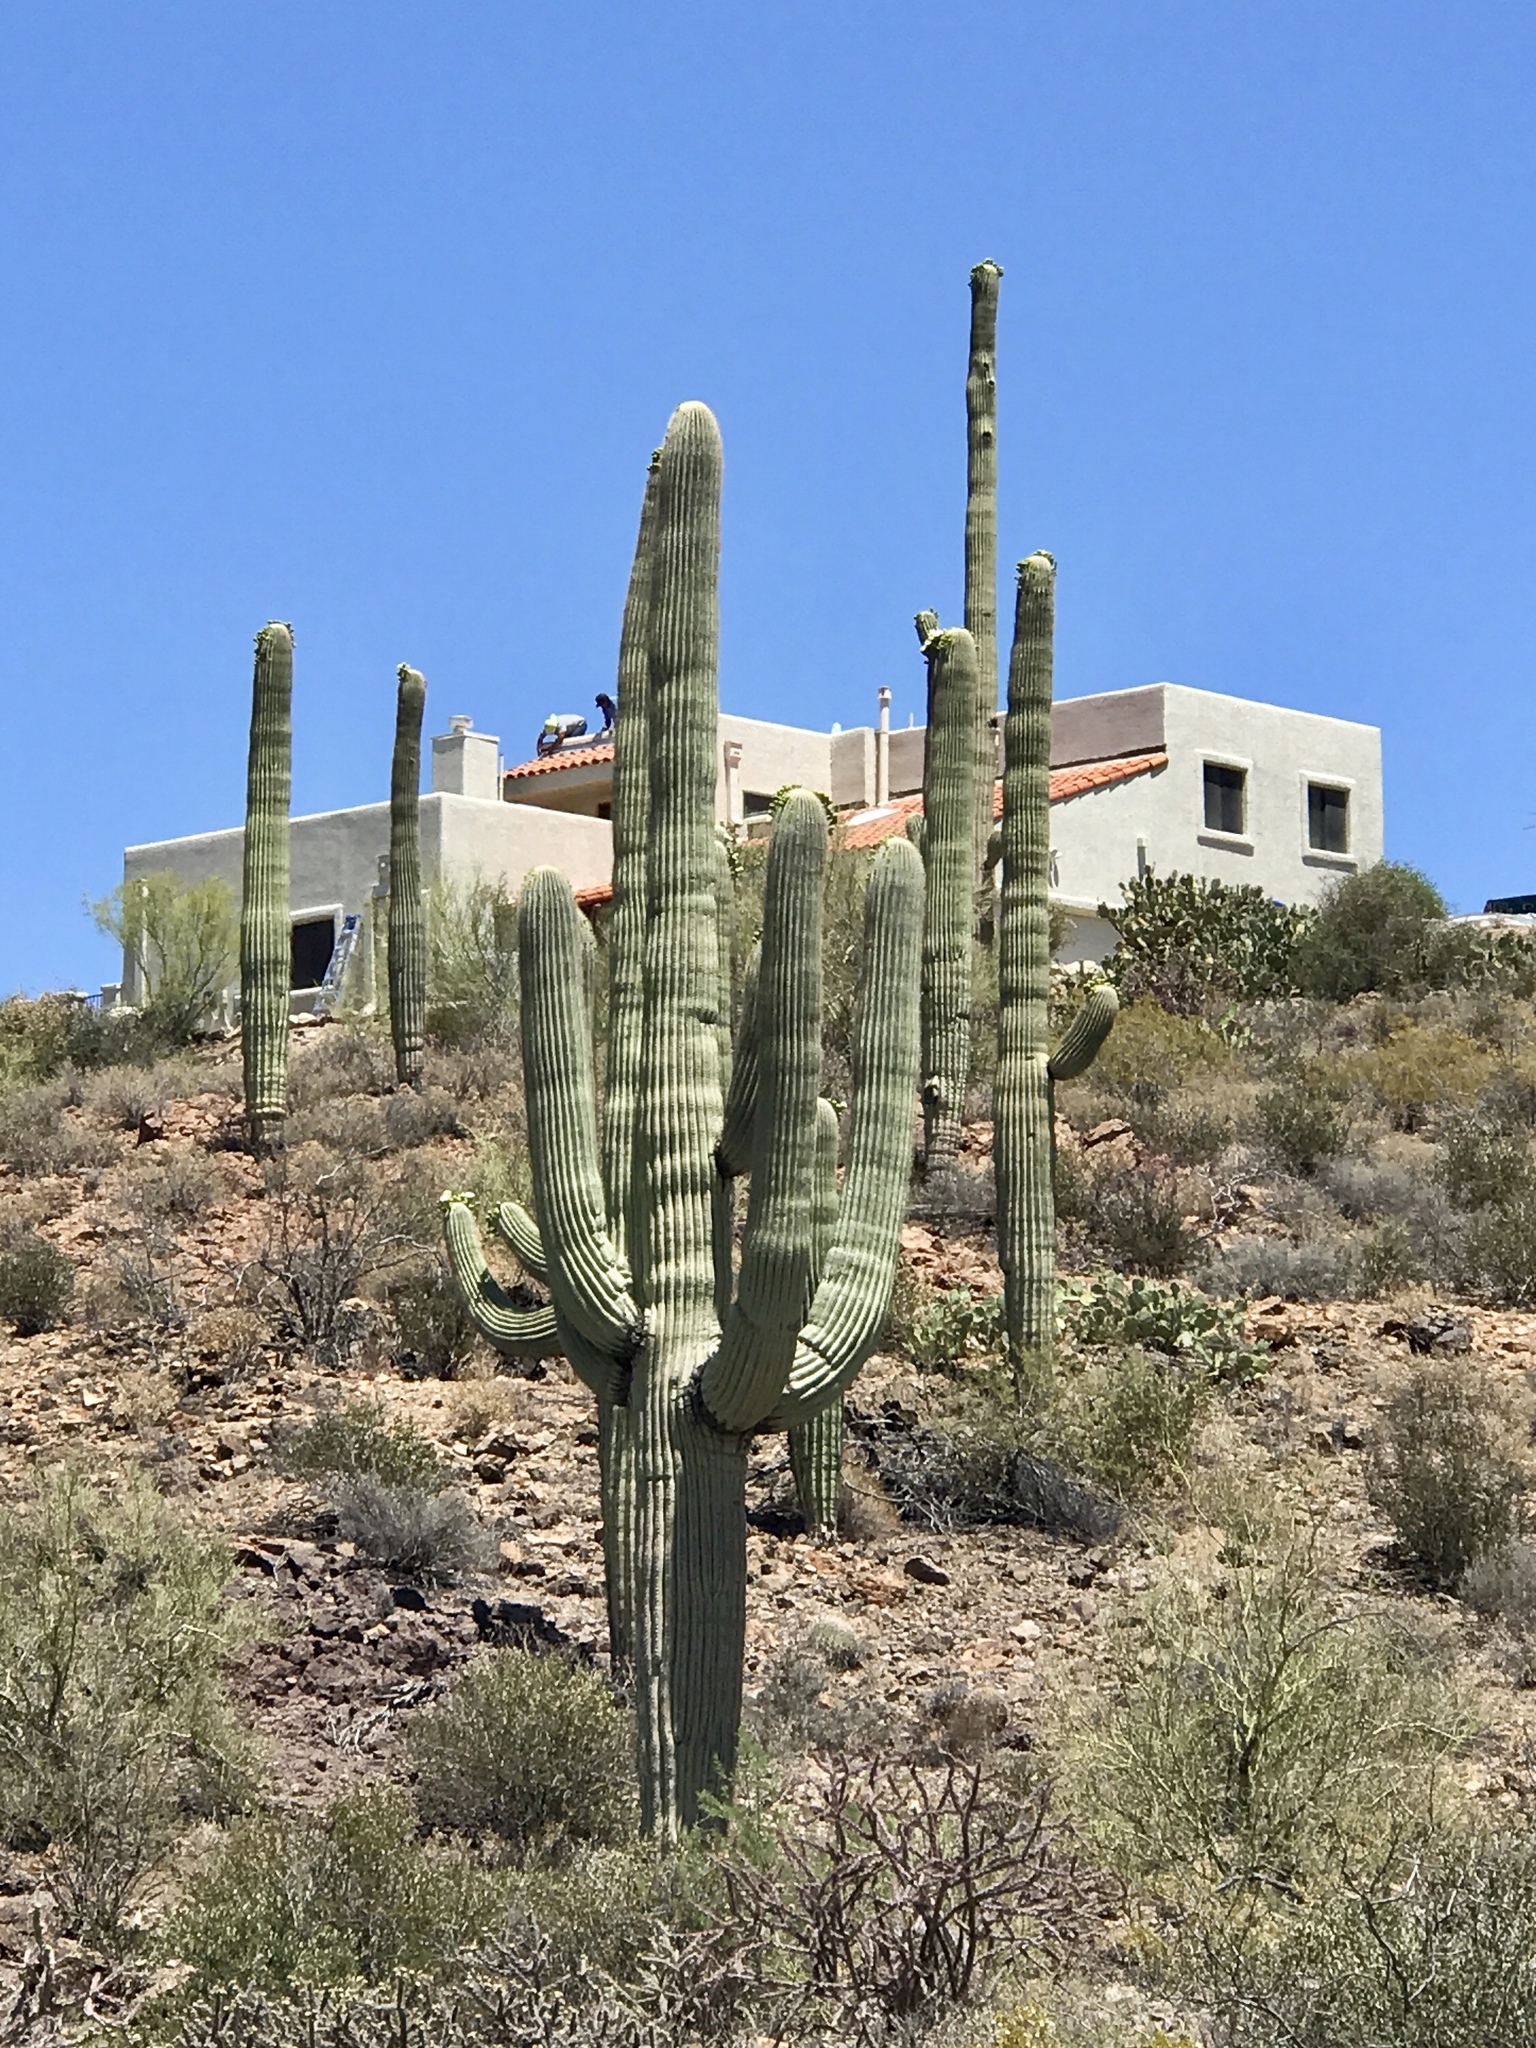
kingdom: Plantae
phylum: Tracheophyta
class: Magnoliopsida
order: Caryophyllales
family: Cactaceae
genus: Carnegiea
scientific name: Carnegiea gigantea
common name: Saguaro
